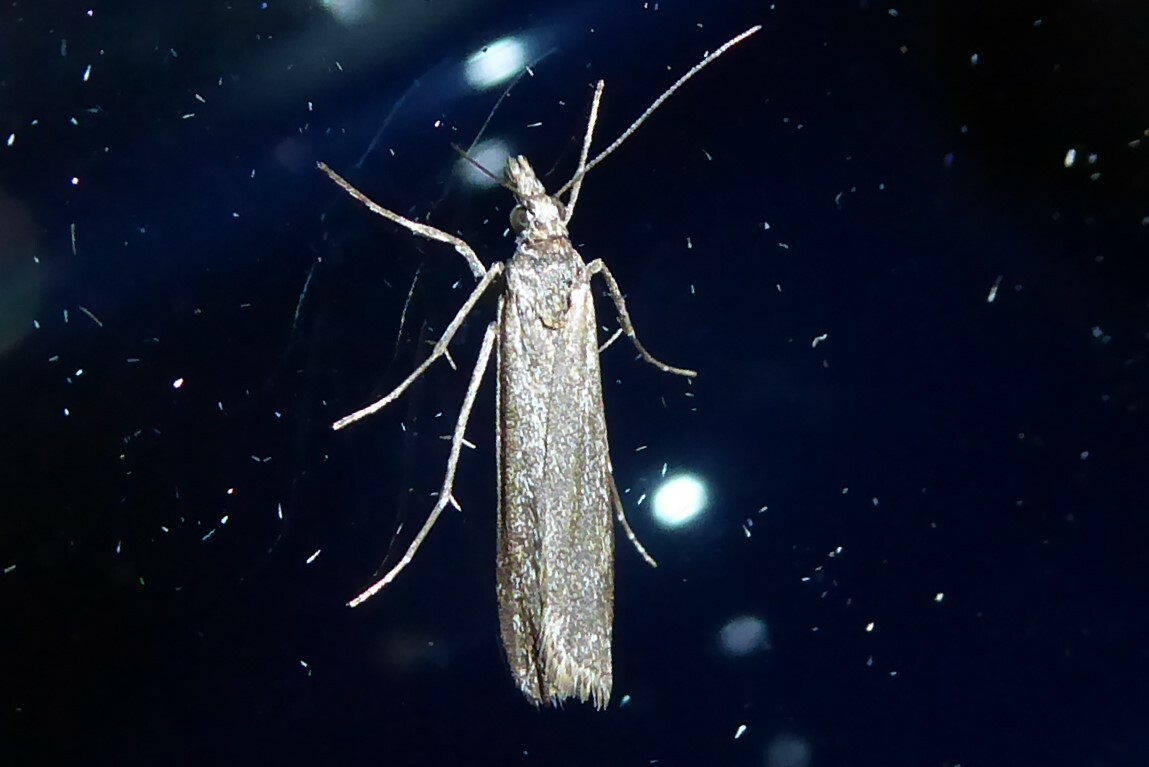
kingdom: Animalia
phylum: Arthropoda
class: Insecta
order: Lepidoptera
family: Crambidae
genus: Eudonia
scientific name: Eudonia leptalea
